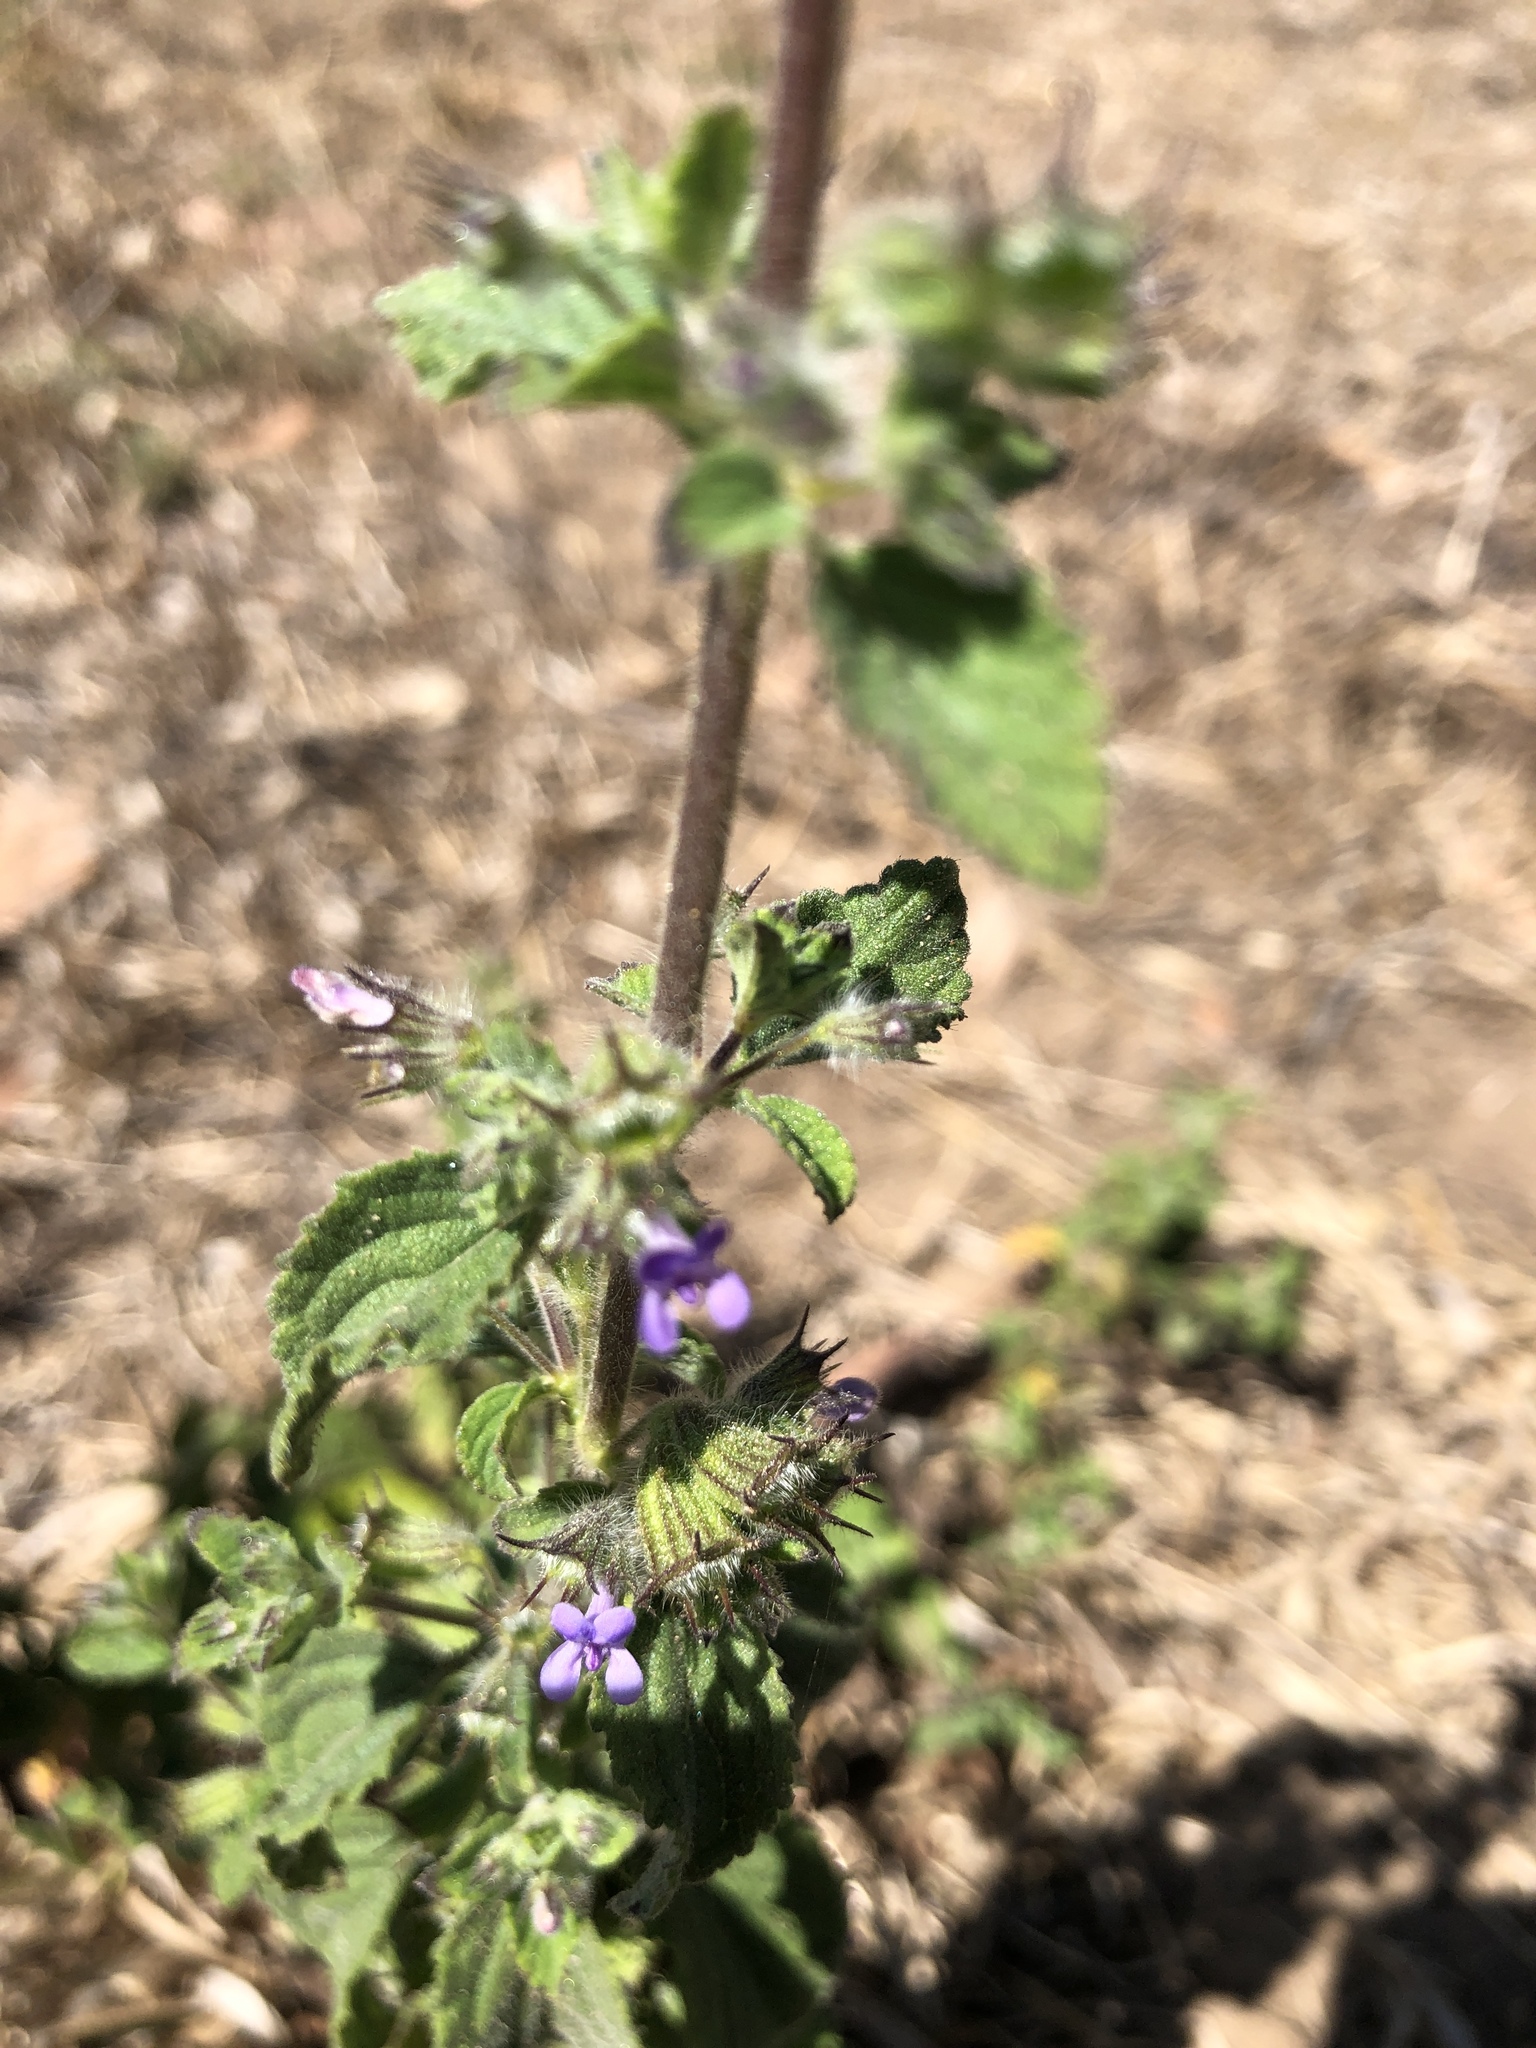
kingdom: Plantae
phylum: Tracheophyta
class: Magnoliopsida
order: Lamiales
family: Lamiaceae
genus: Mesosphaerum
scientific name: Mesosphaerum suaveolens
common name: Pignut
